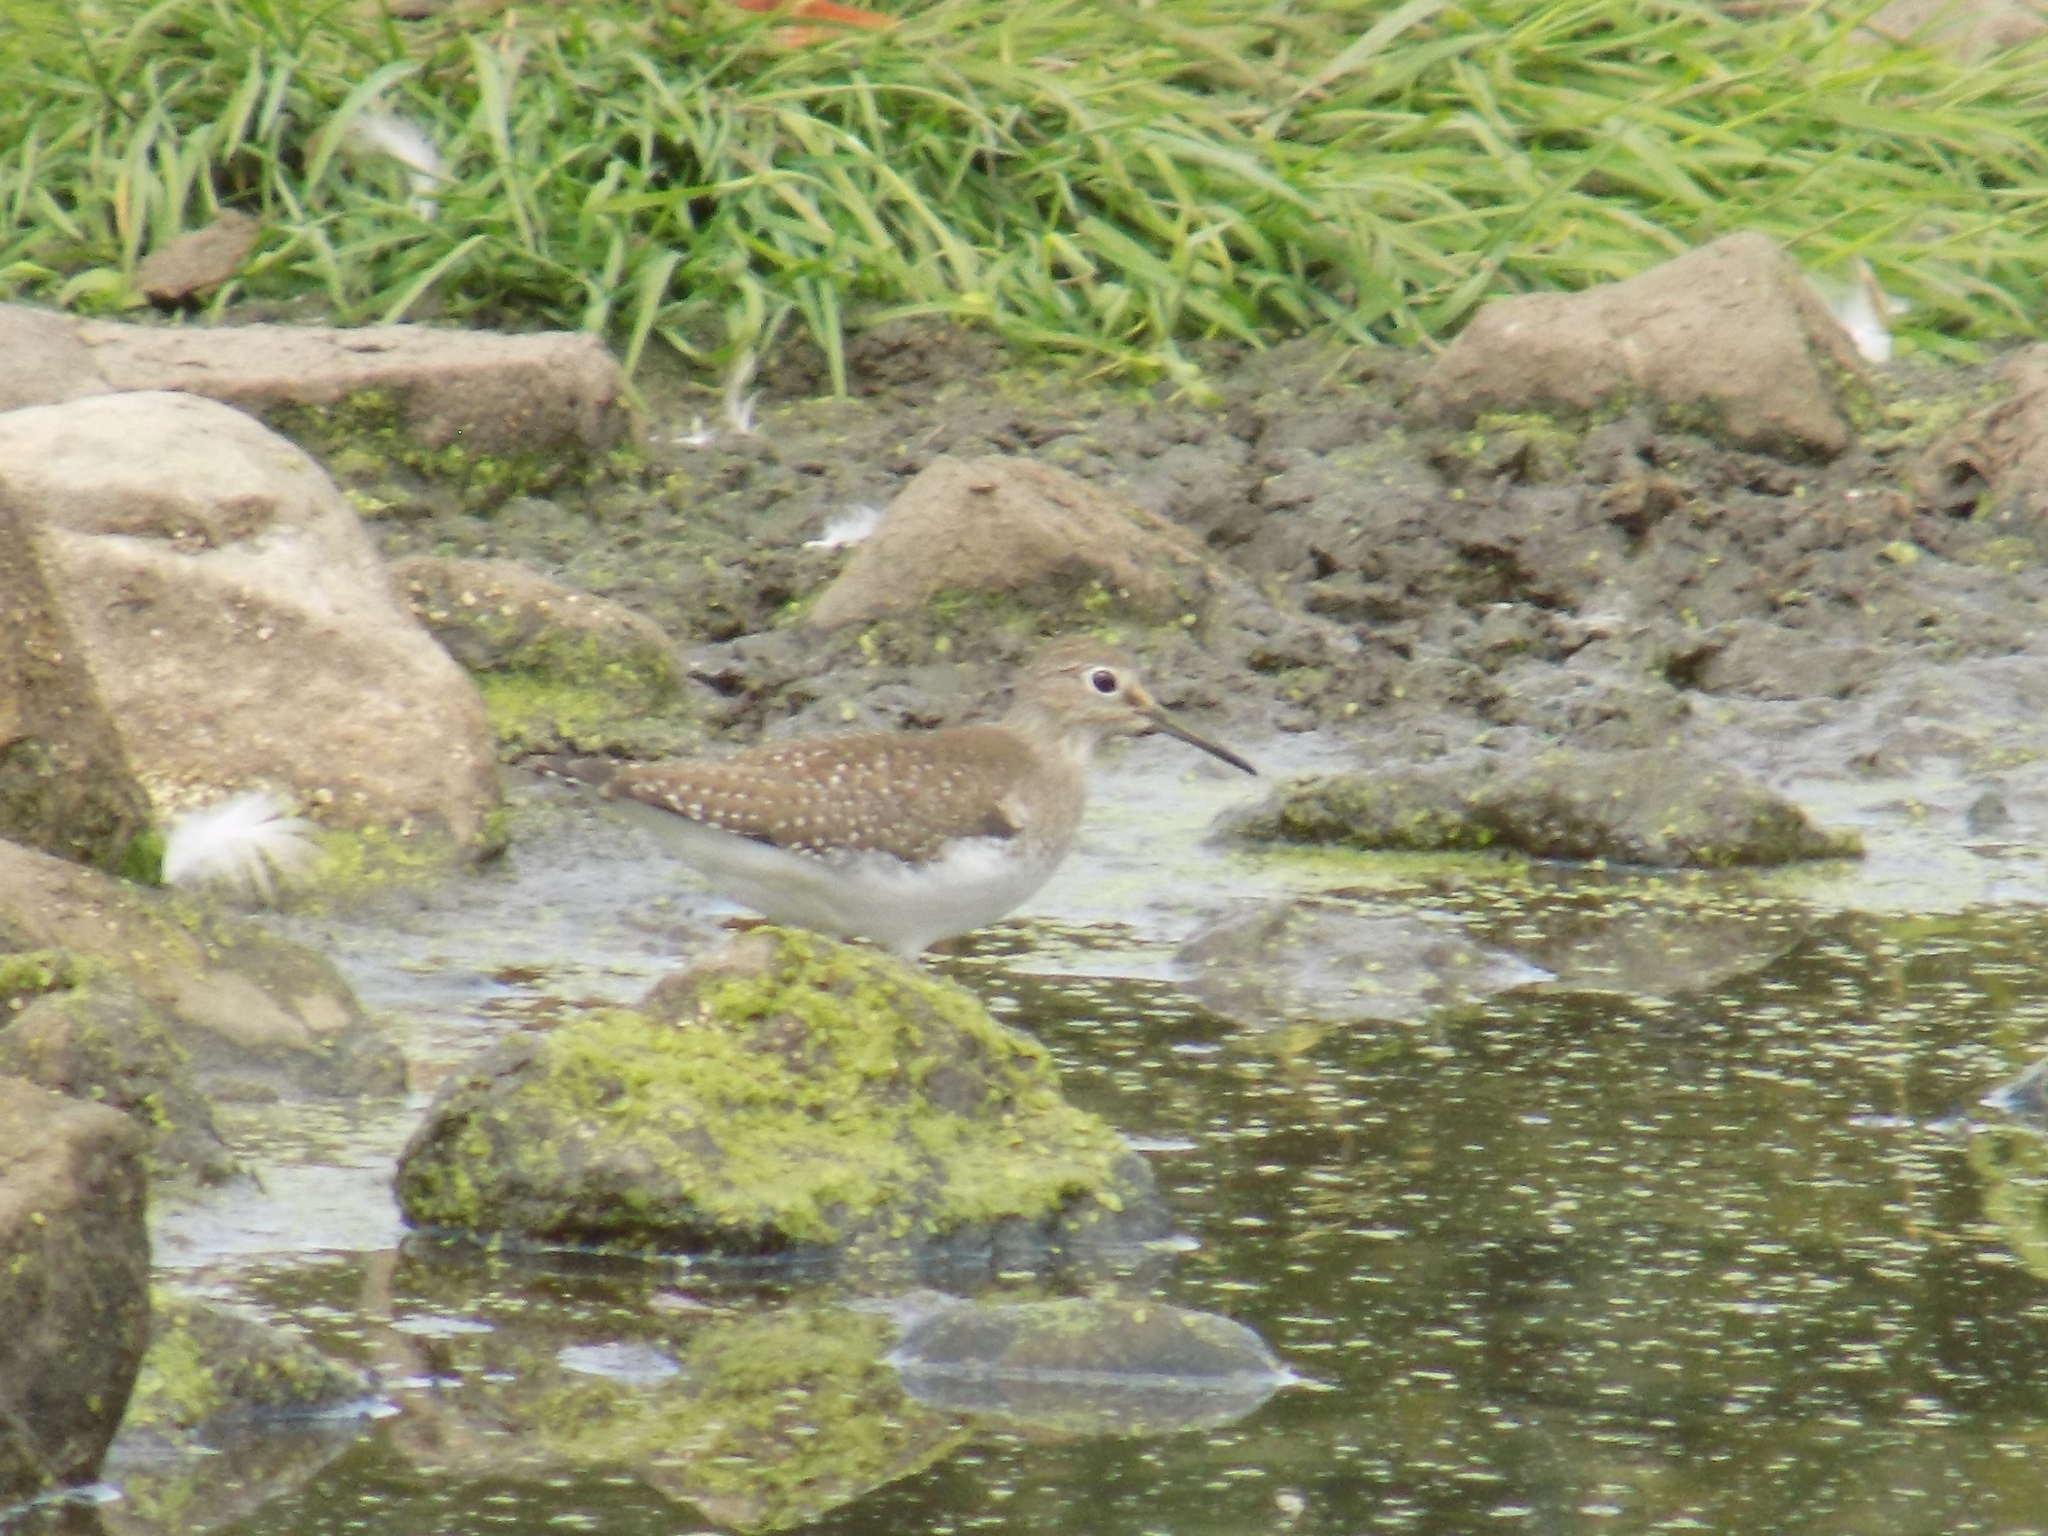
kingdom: Animalia
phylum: Chordata
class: Aves
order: Charadriiformes
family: Scolopacidae
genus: Tringa
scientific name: Tringa solitaria
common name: Solitary sandpiper
